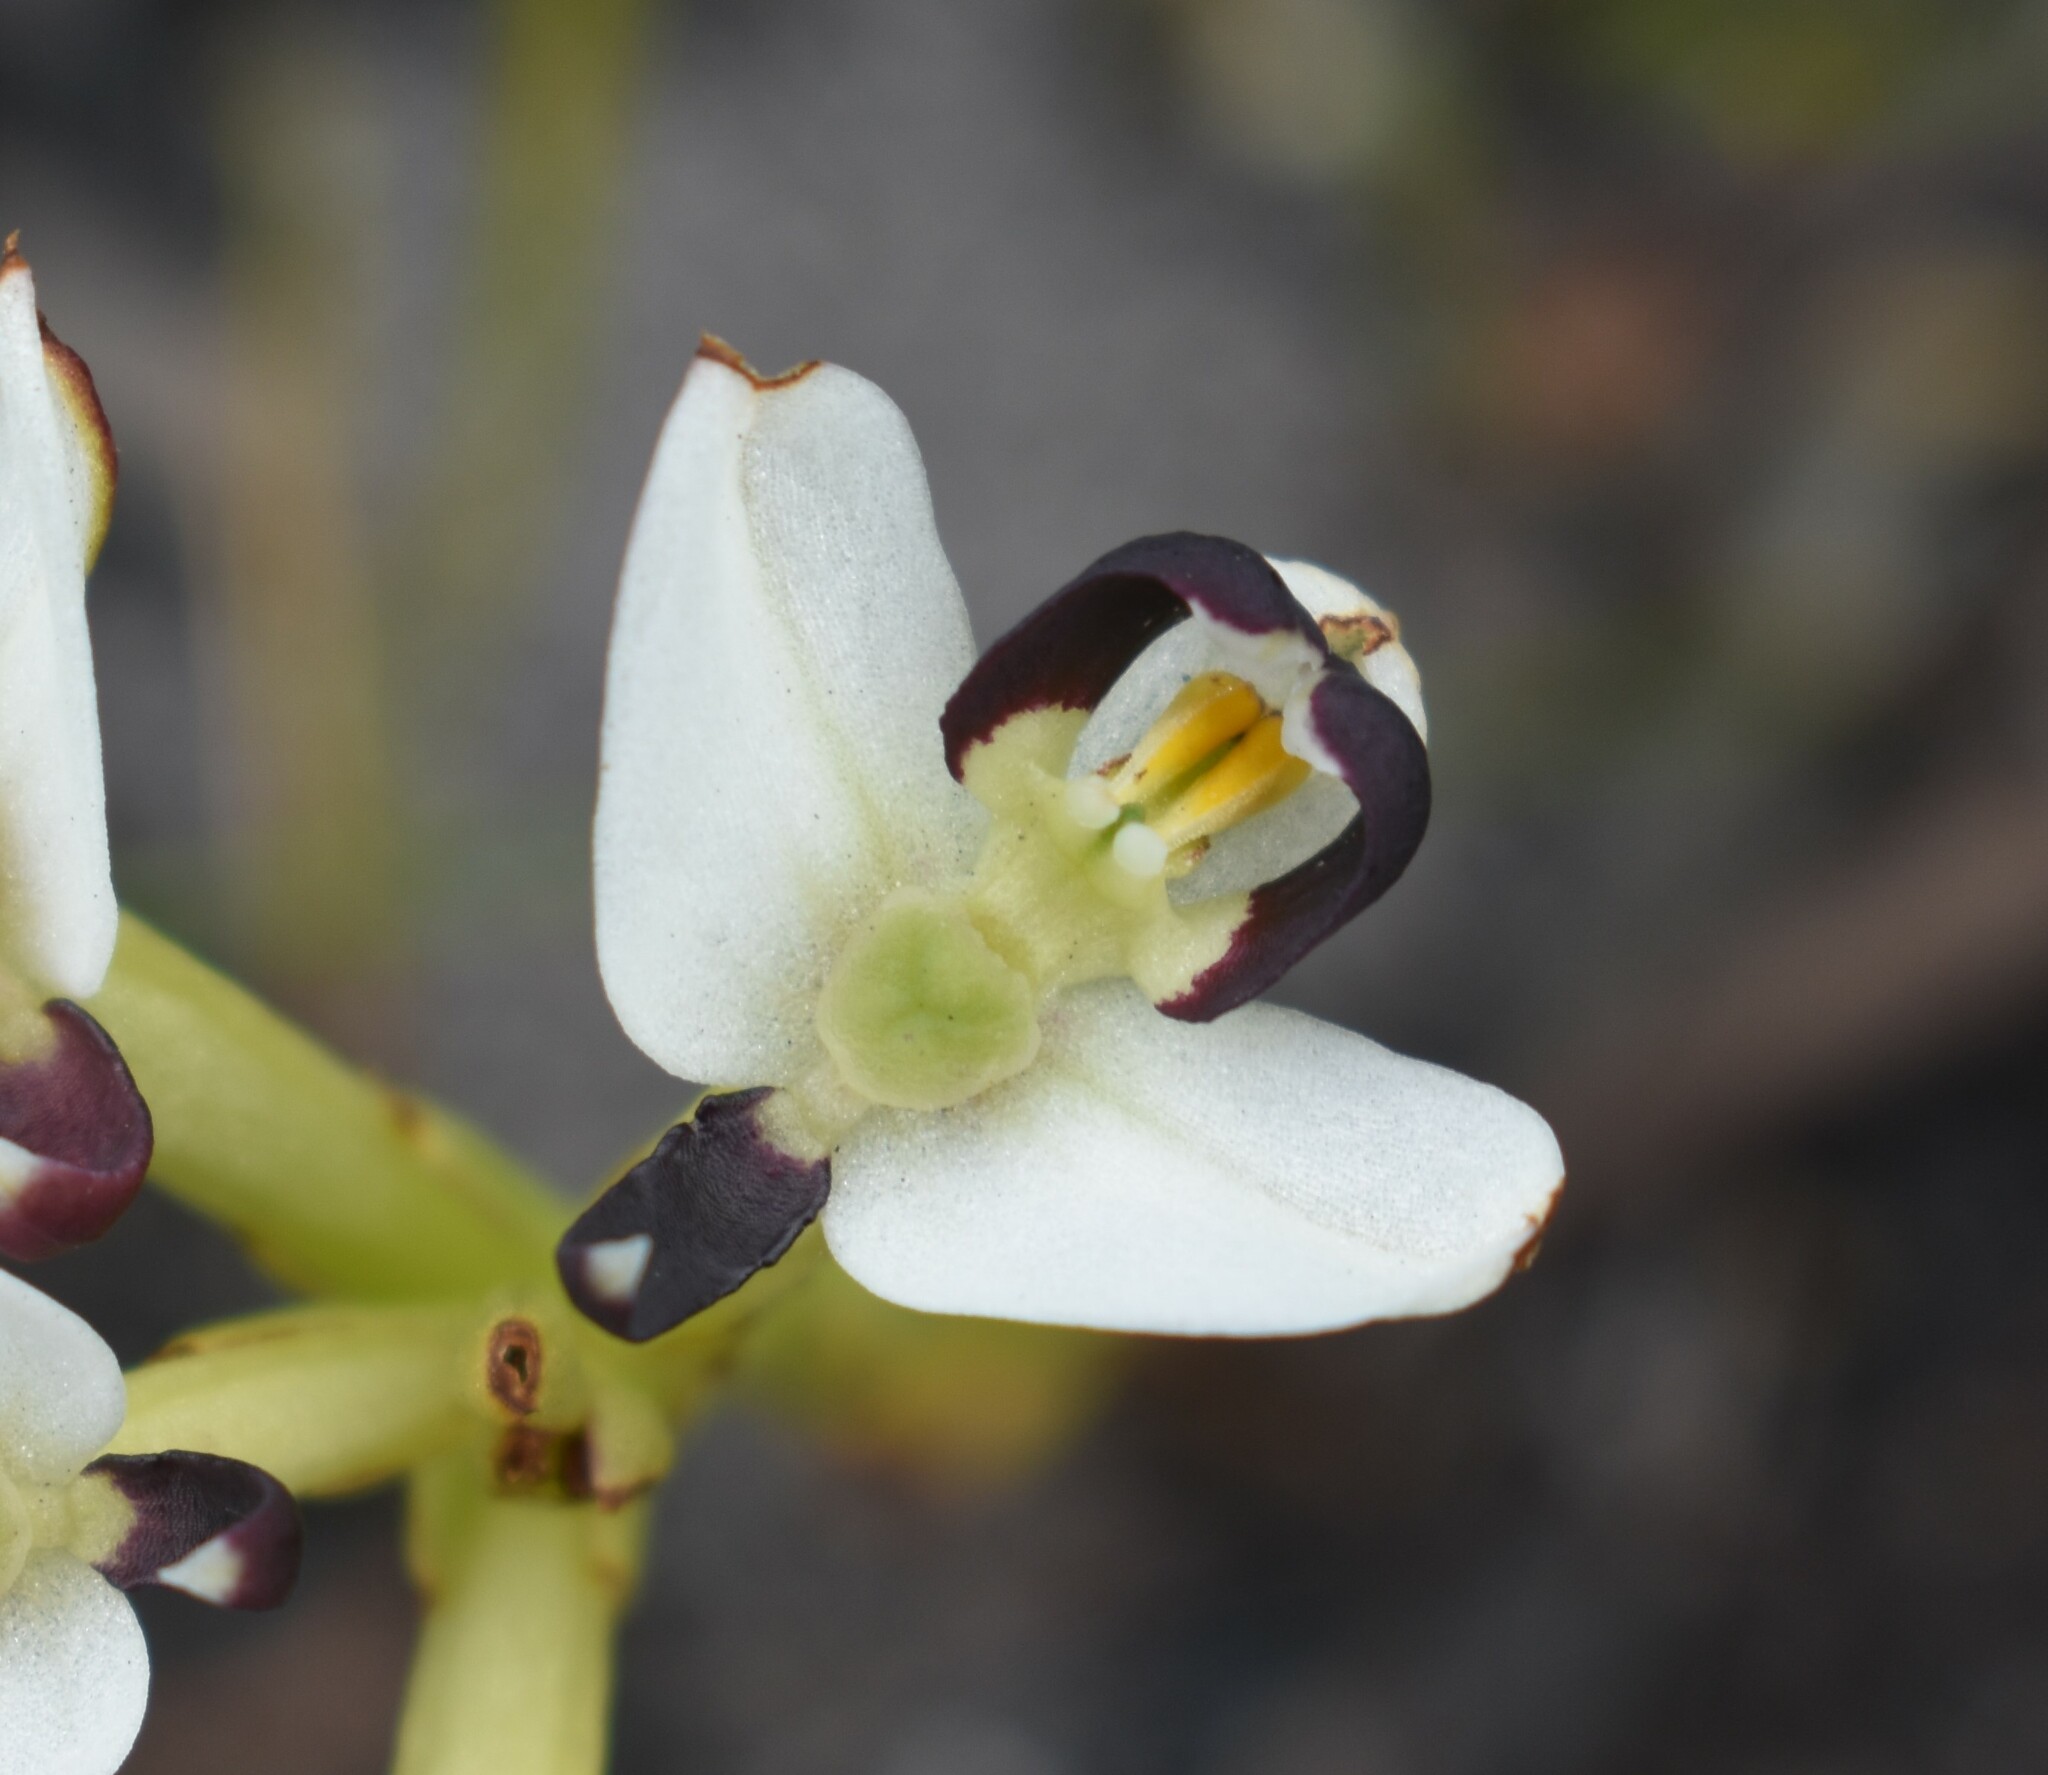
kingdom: Plantae
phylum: Tracheophyta
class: Liliopsida
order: Asparagales
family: Orchidaceae
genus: Disa
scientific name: Disa bivalvata
